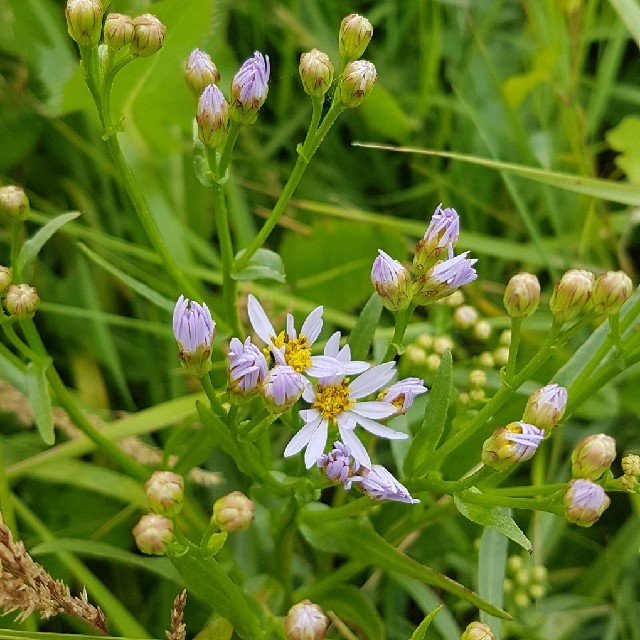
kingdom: Plantae
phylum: Tracheophyta
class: Magnoliopsida
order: Asterales
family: Asteraceae
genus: Tripolium
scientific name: Tripolium pannonicum
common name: Sea aster
